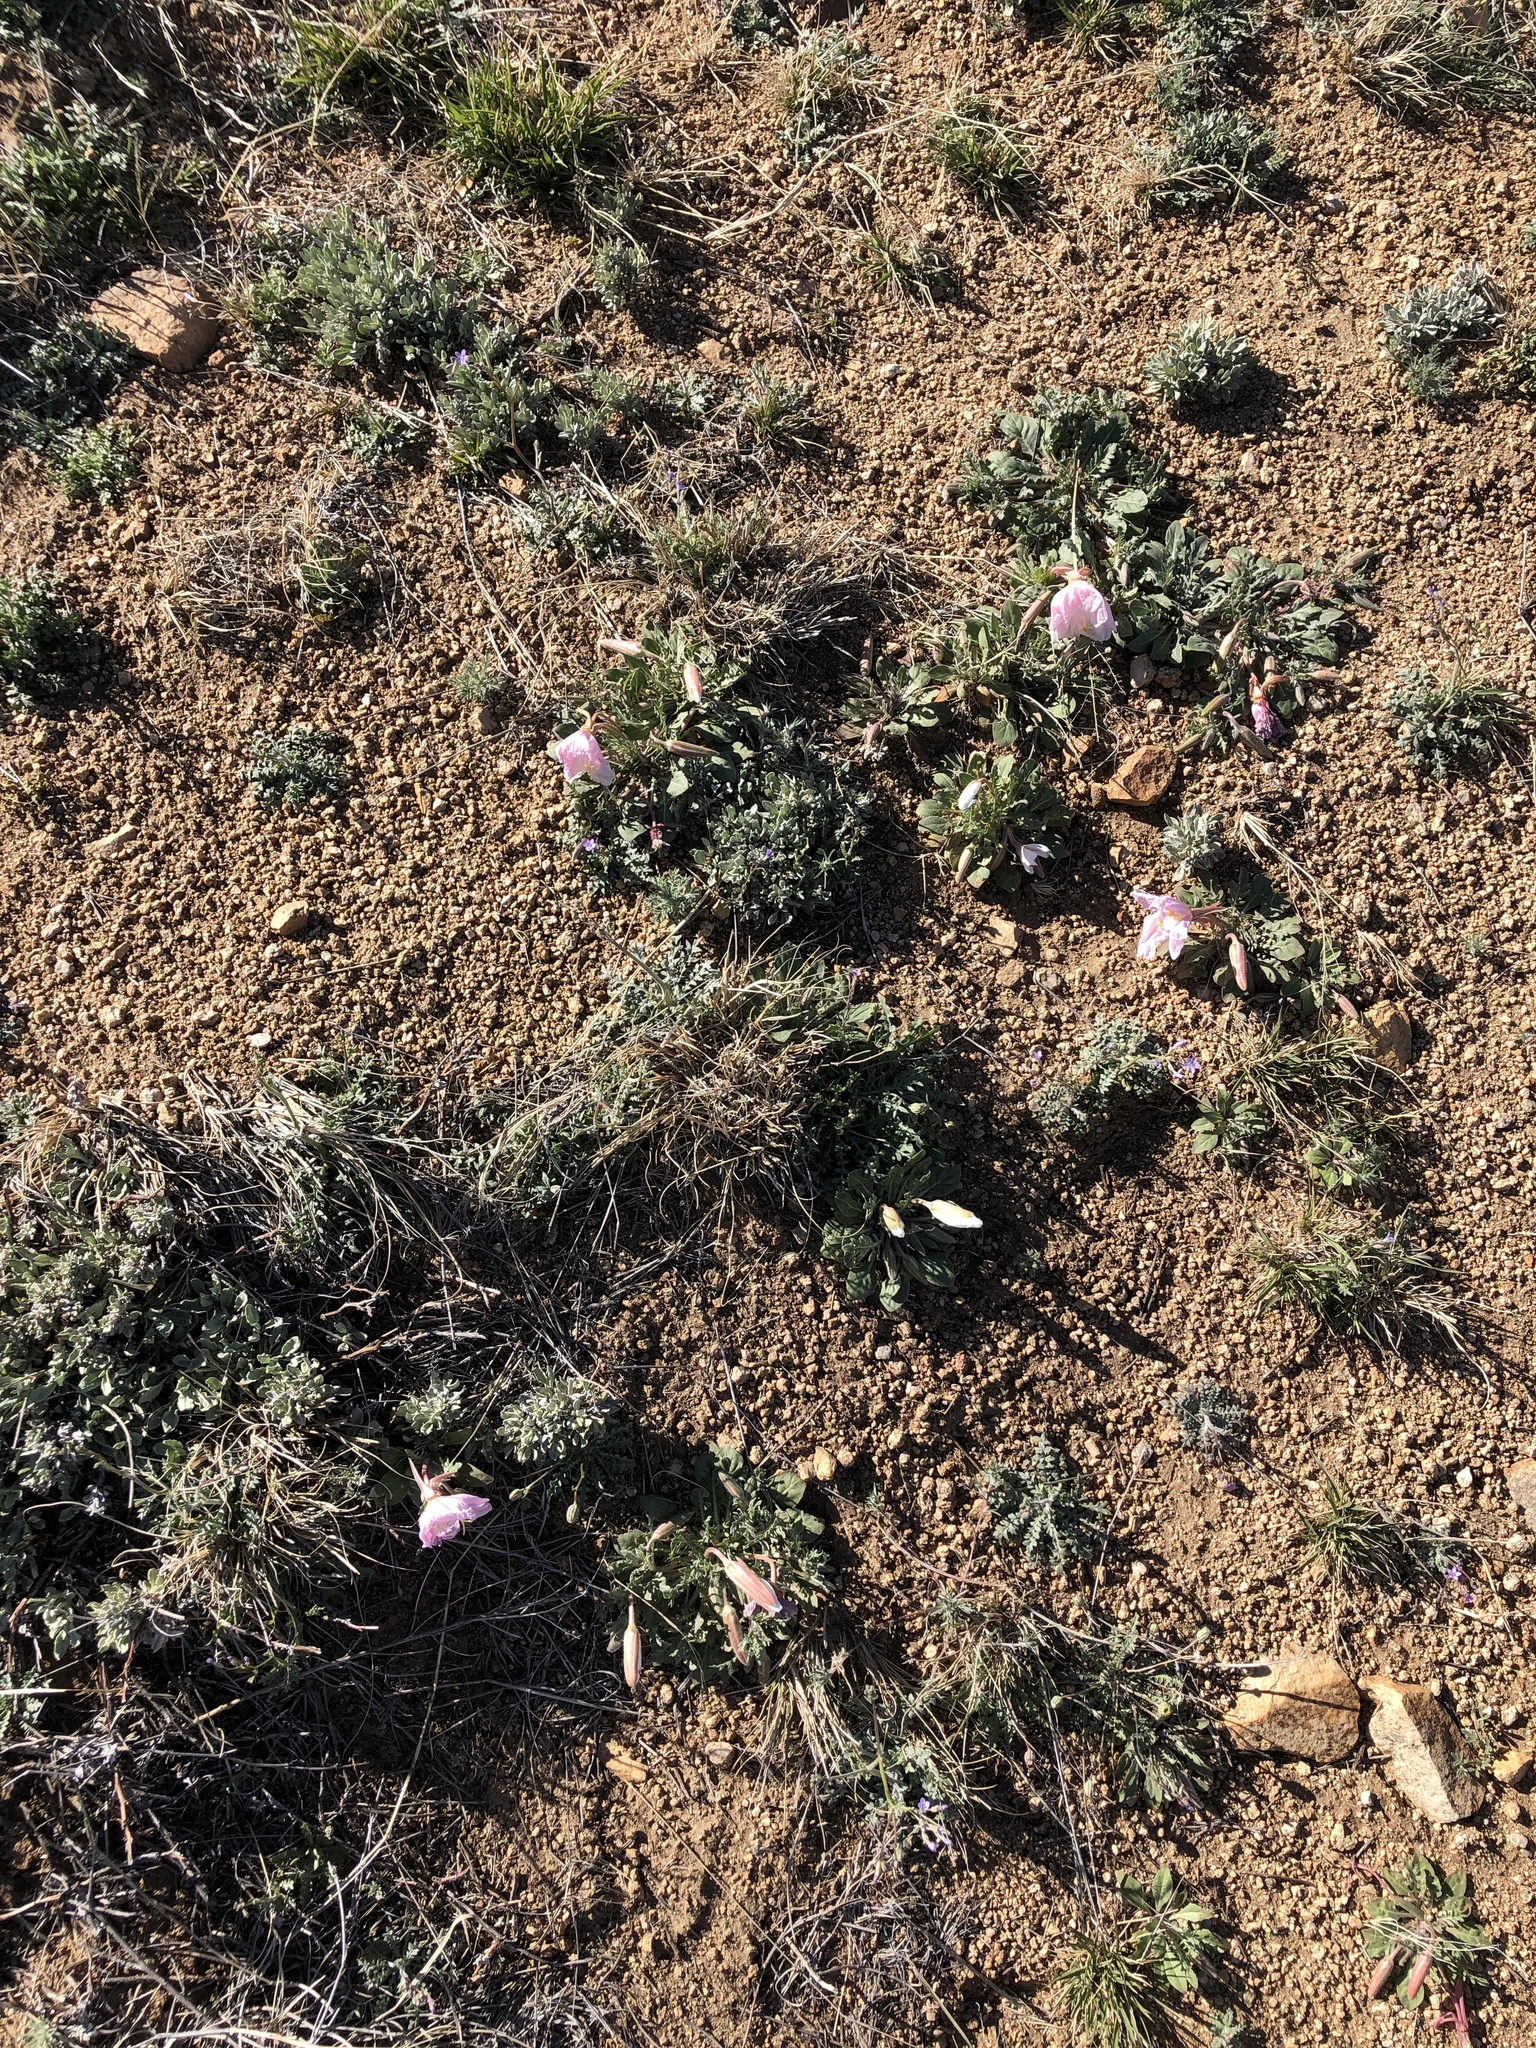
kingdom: Plantae
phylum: Tracheophyta
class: Magnoliopsida
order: Myrtales
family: Onagraceae
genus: Oenothera
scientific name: Oenothera albicaulis
